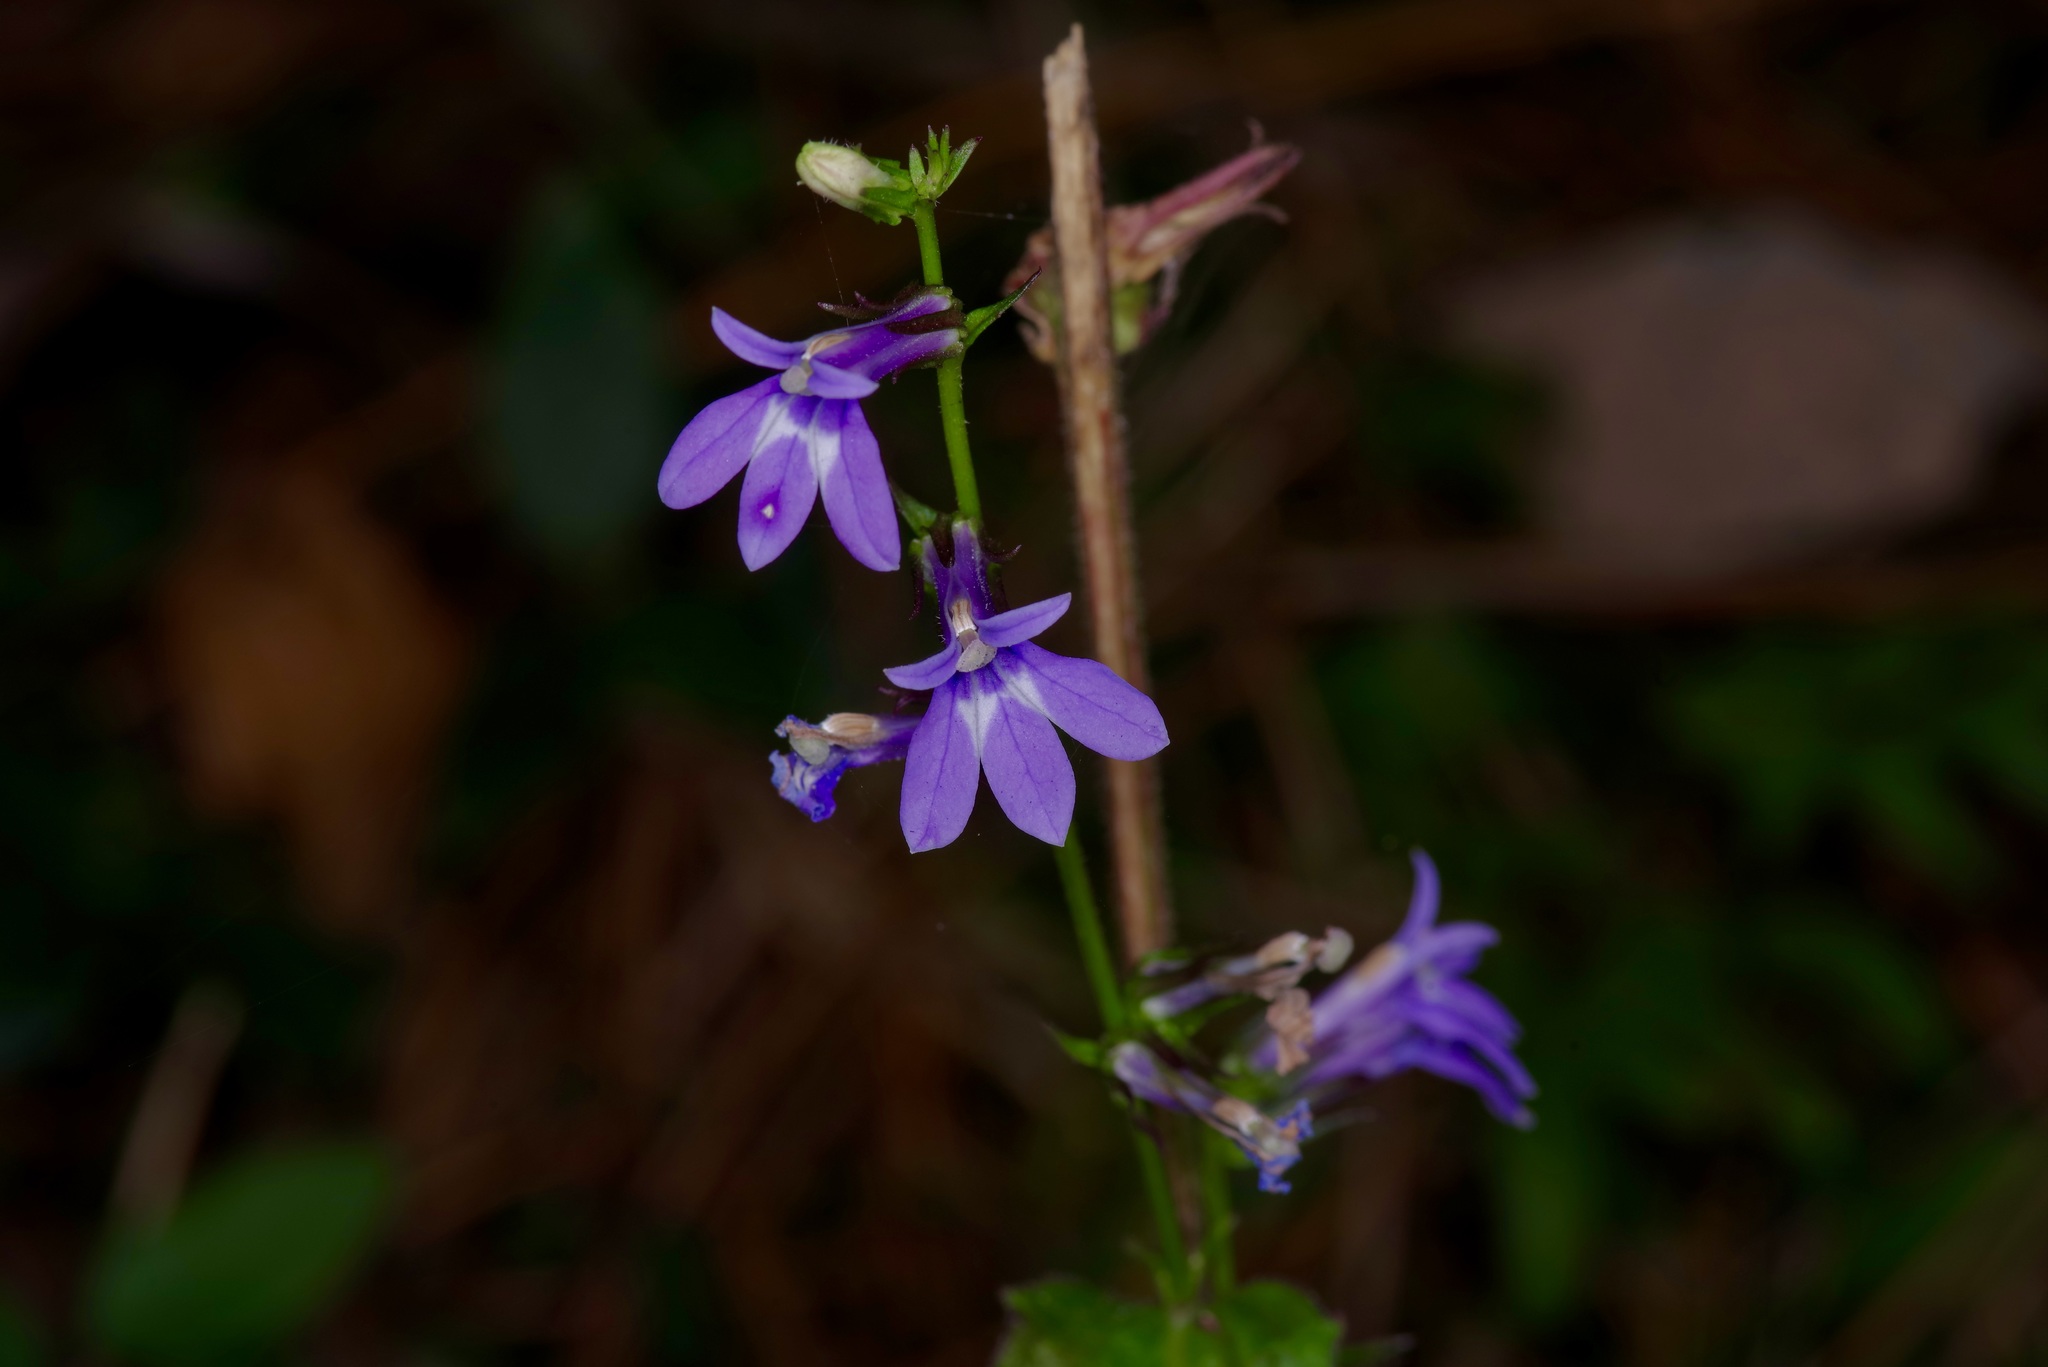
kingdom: Plantae
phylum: Tracheophyta
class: Magnoliopsida
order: Asterales
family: Campanulaceae
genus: Lobelia
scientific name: Lobelia puberula
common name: Purple dewdrop
